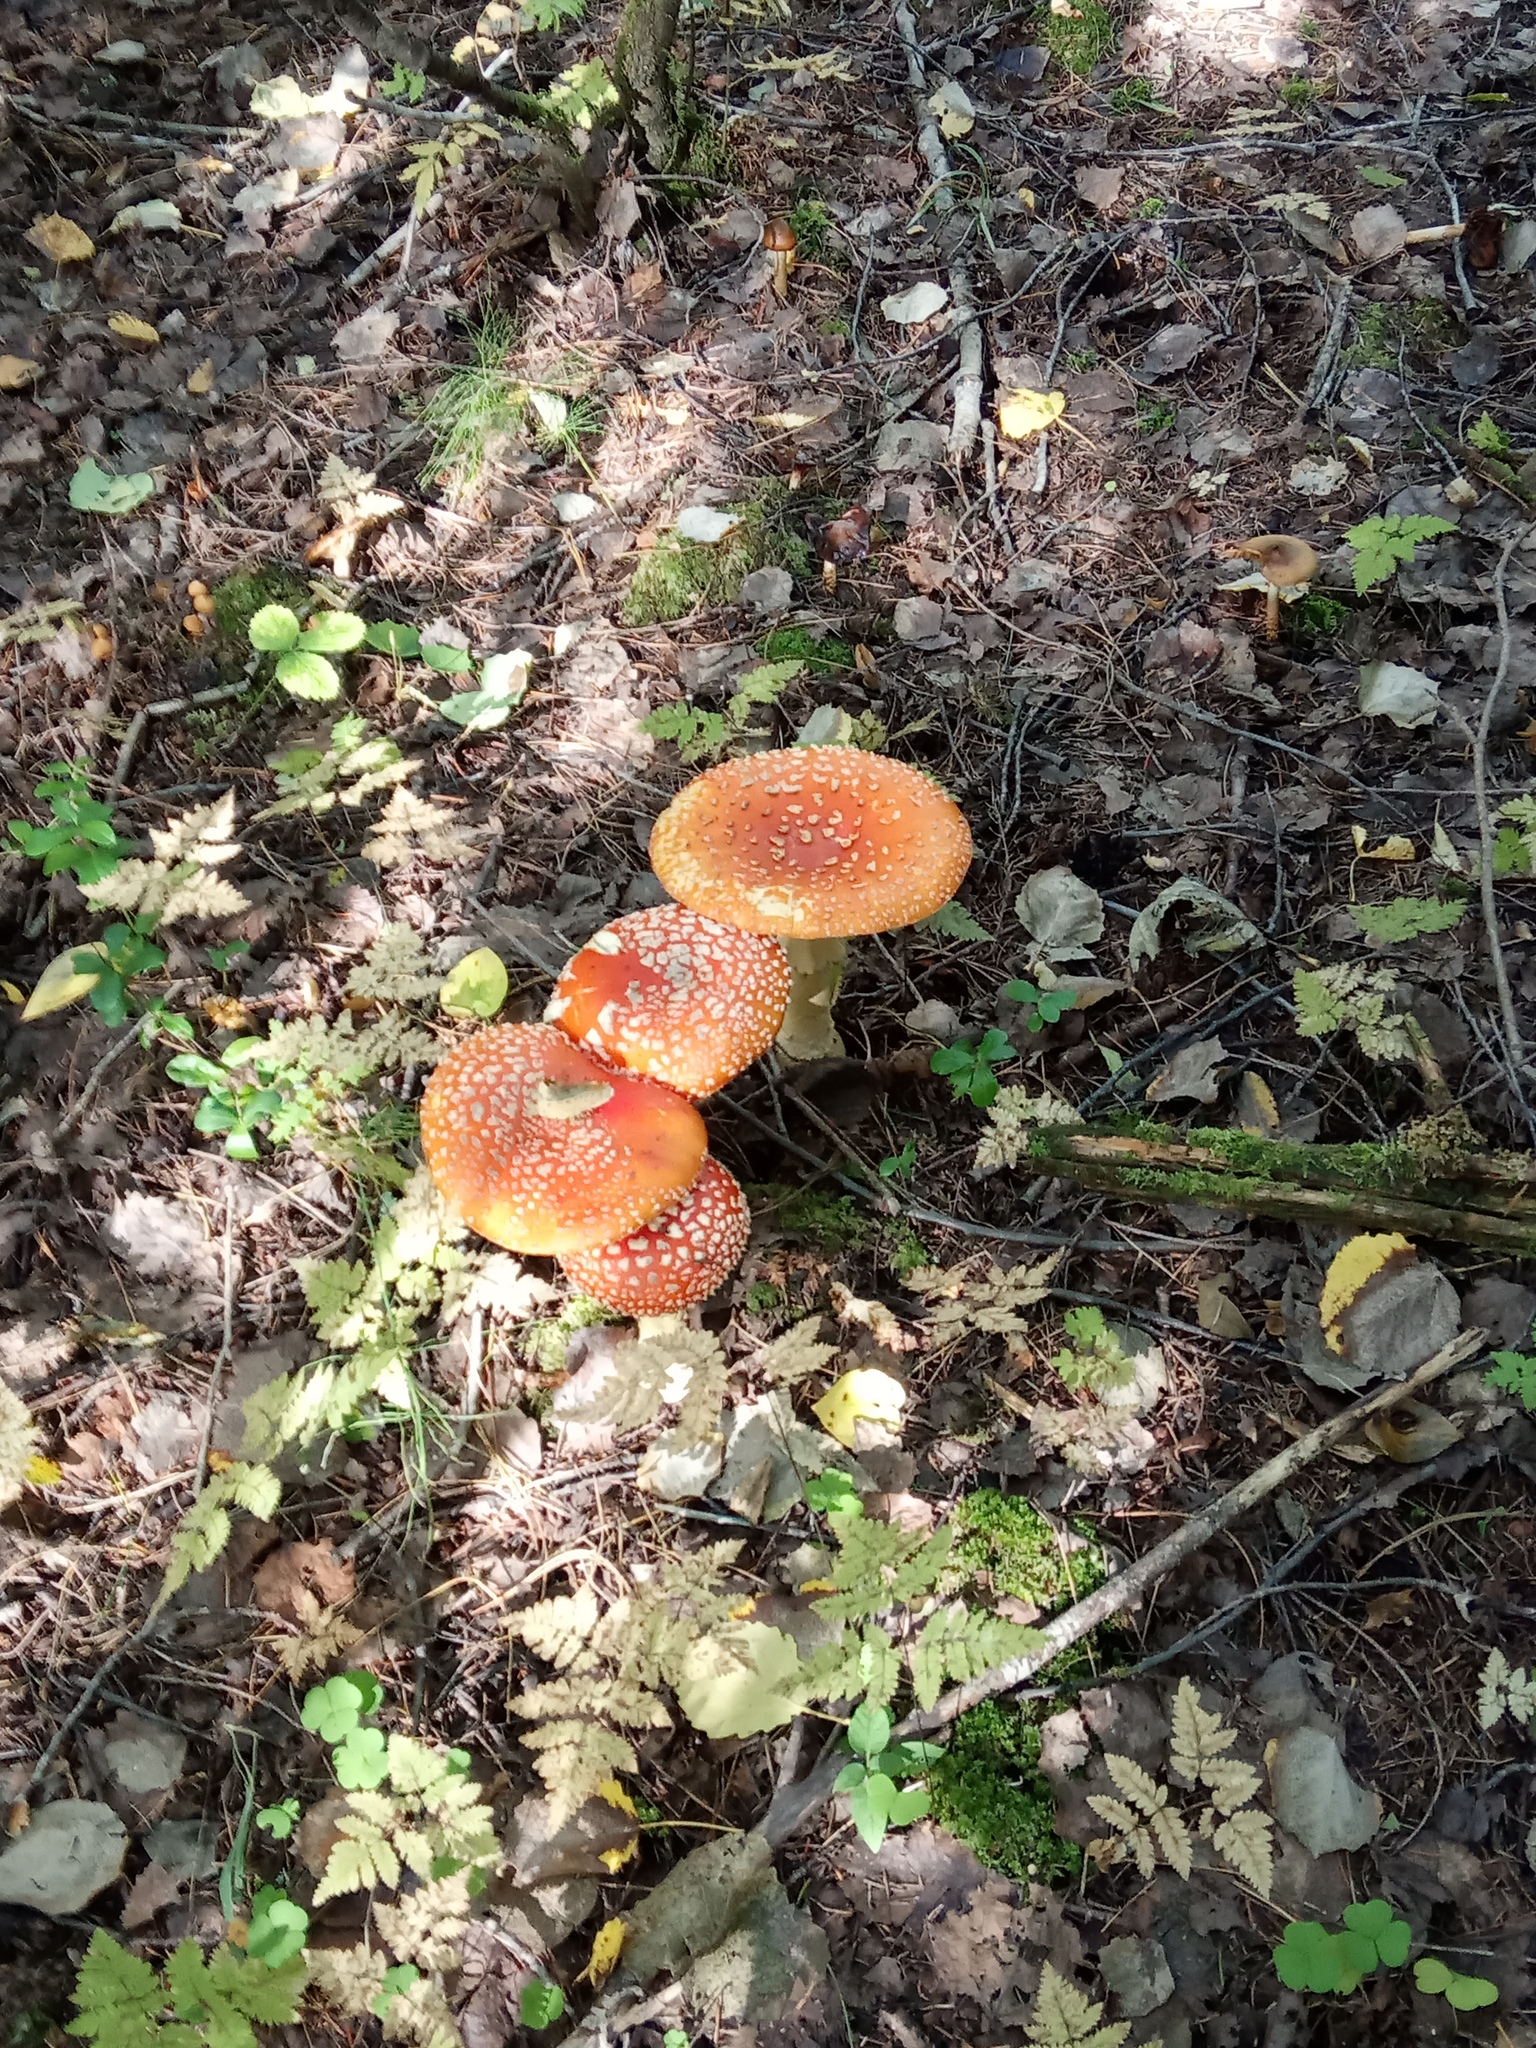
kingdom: Fungi
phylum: Basidiomycota
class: Agaricomycetes
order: Agaricales
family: Amanitaceae
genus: Amanita
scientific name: Amanita muscaria
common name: Fly agaric
